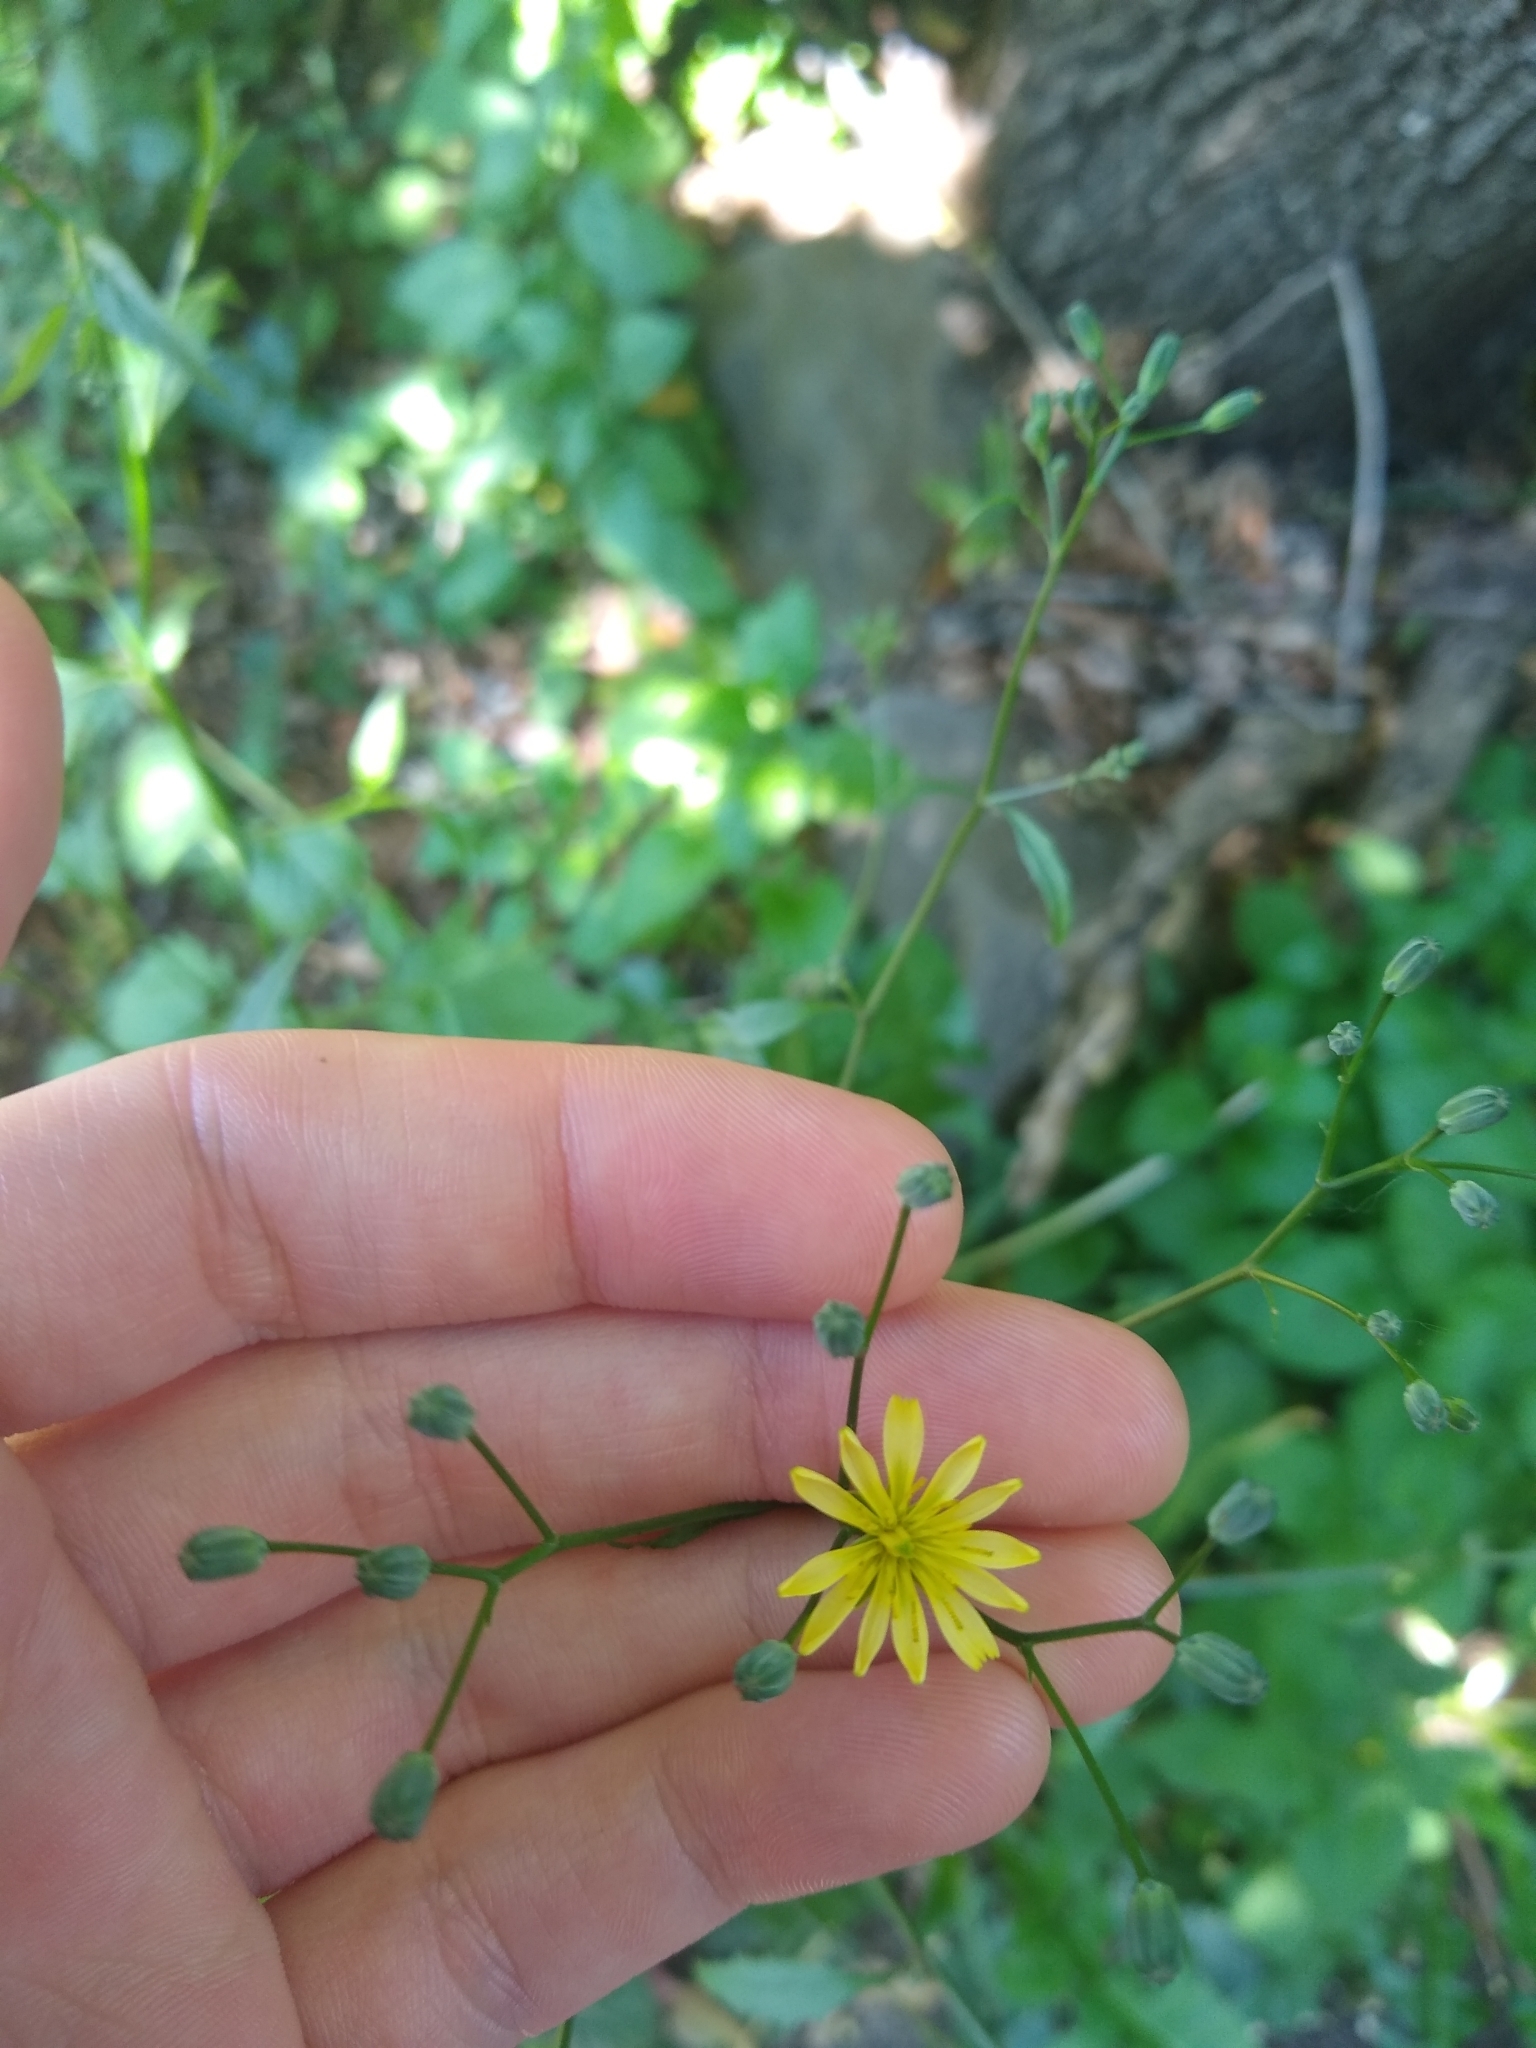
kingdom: Plantae
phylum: Tracheophyta
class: Magnoliopsida
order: Asterales
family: Asteraceae
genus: Lapsana
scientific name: Lapsana communis
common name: Nipplewort
